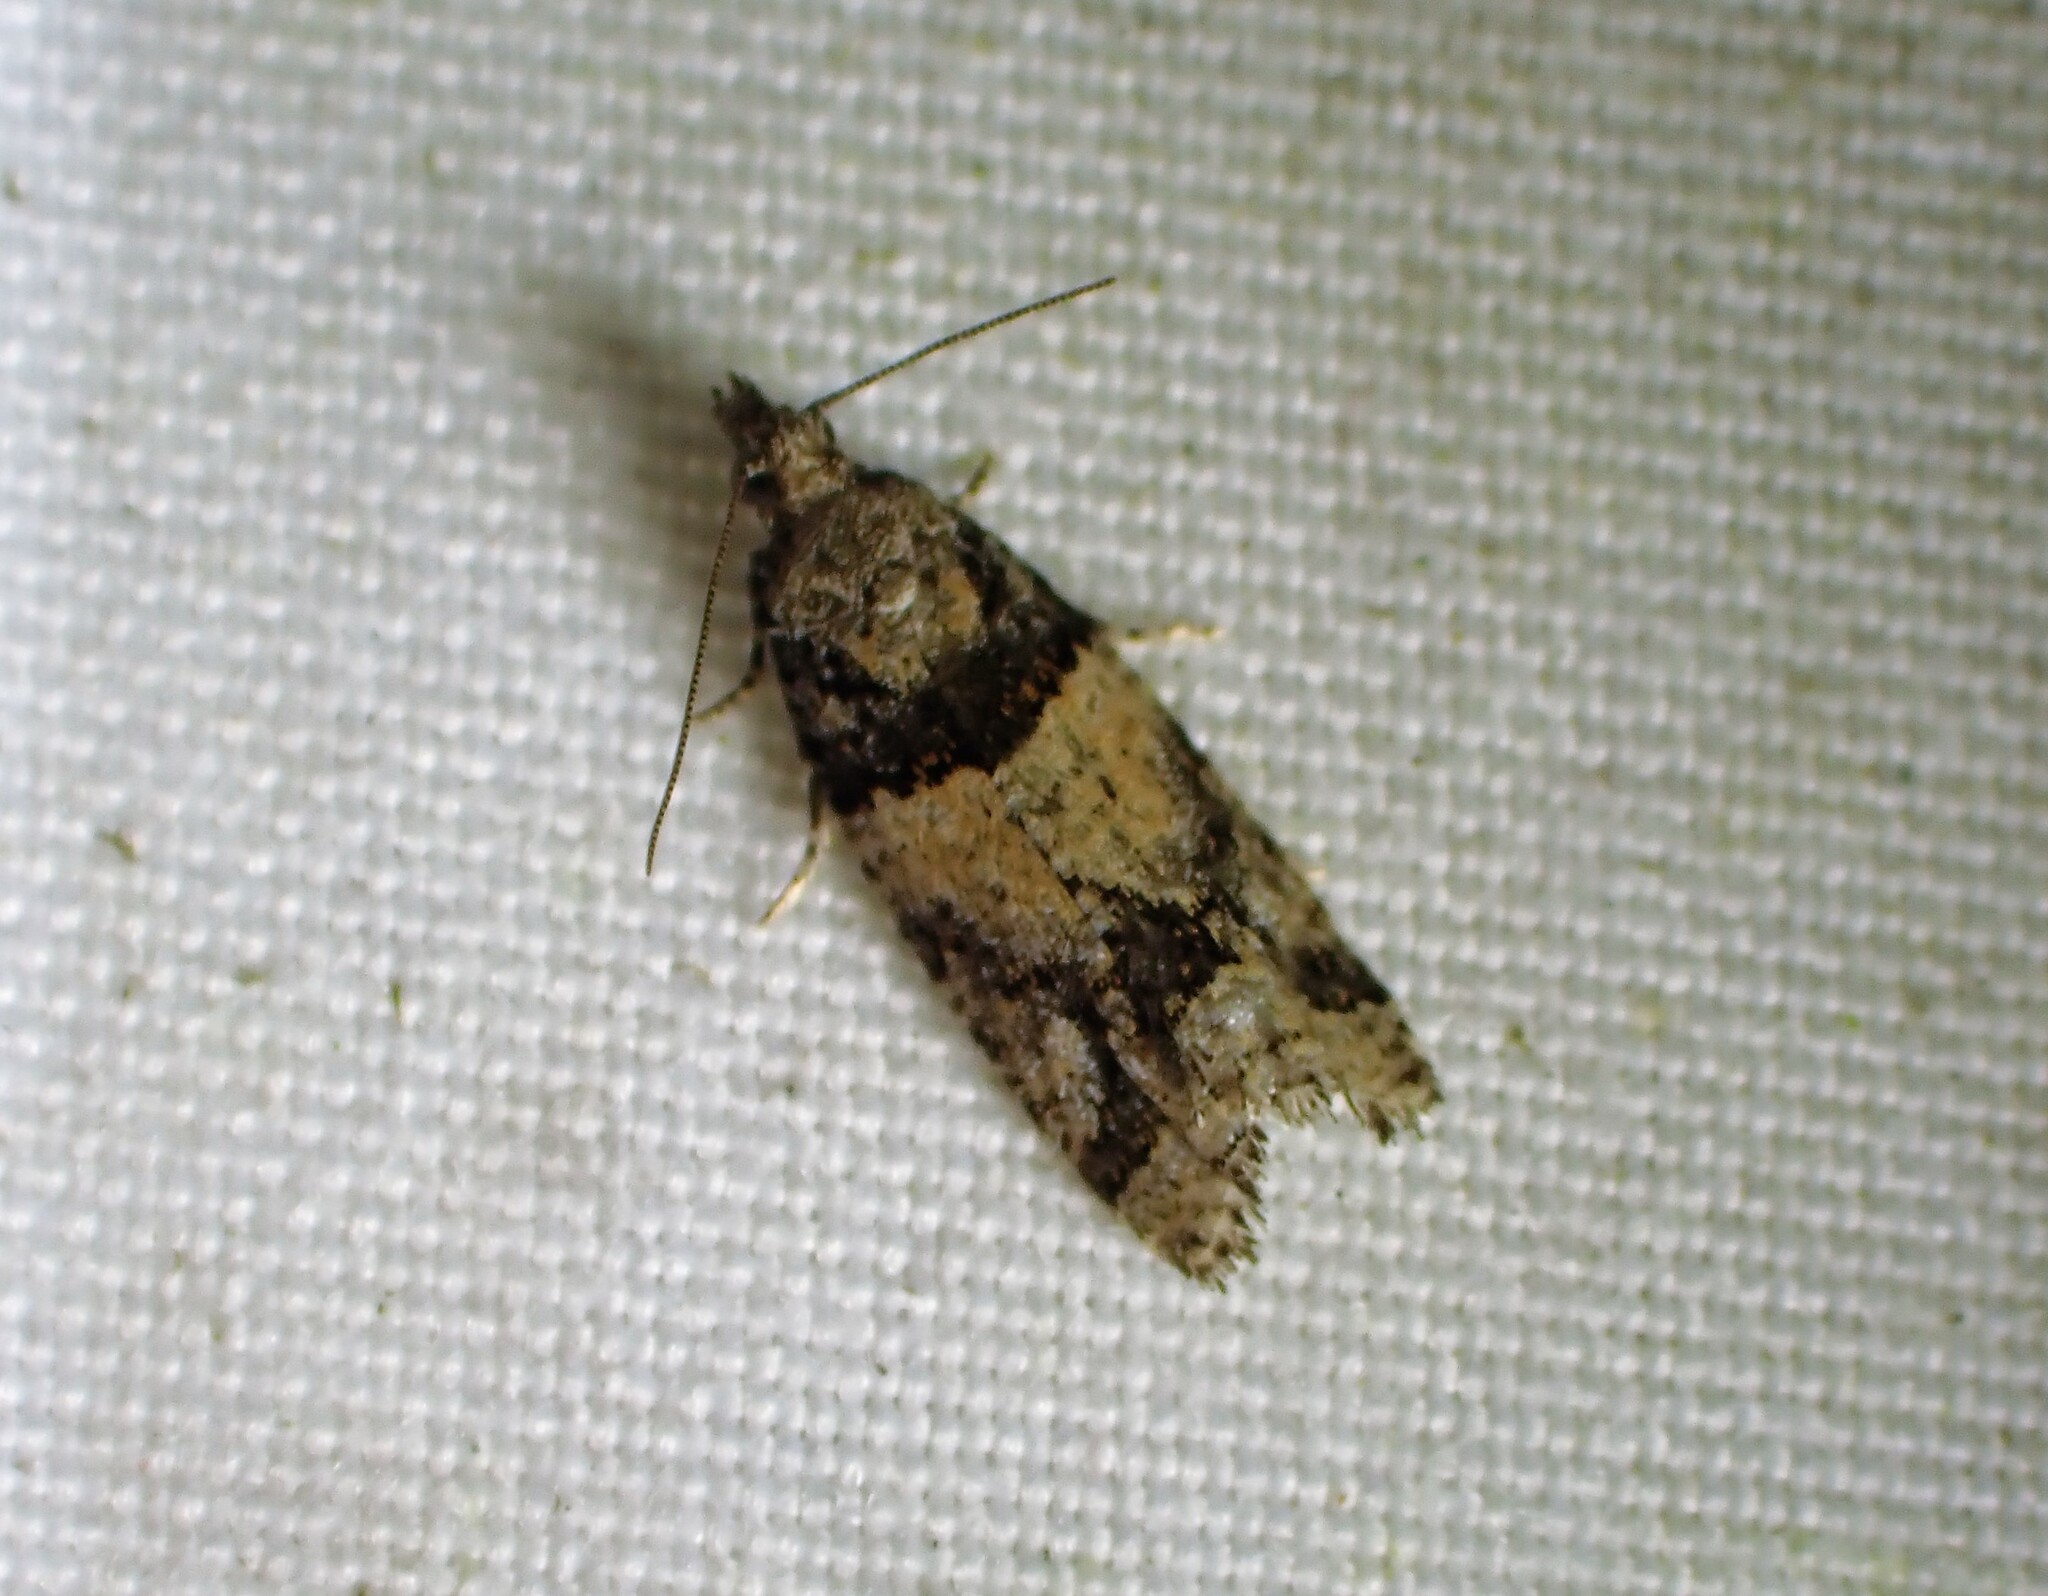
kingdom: Animalia
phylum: Arthropoda
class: Insecta
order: Lepidoptera
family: Tortricidae
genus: Epinotia
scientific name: Epinotia radicana
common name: Red-striped needleworm moth
